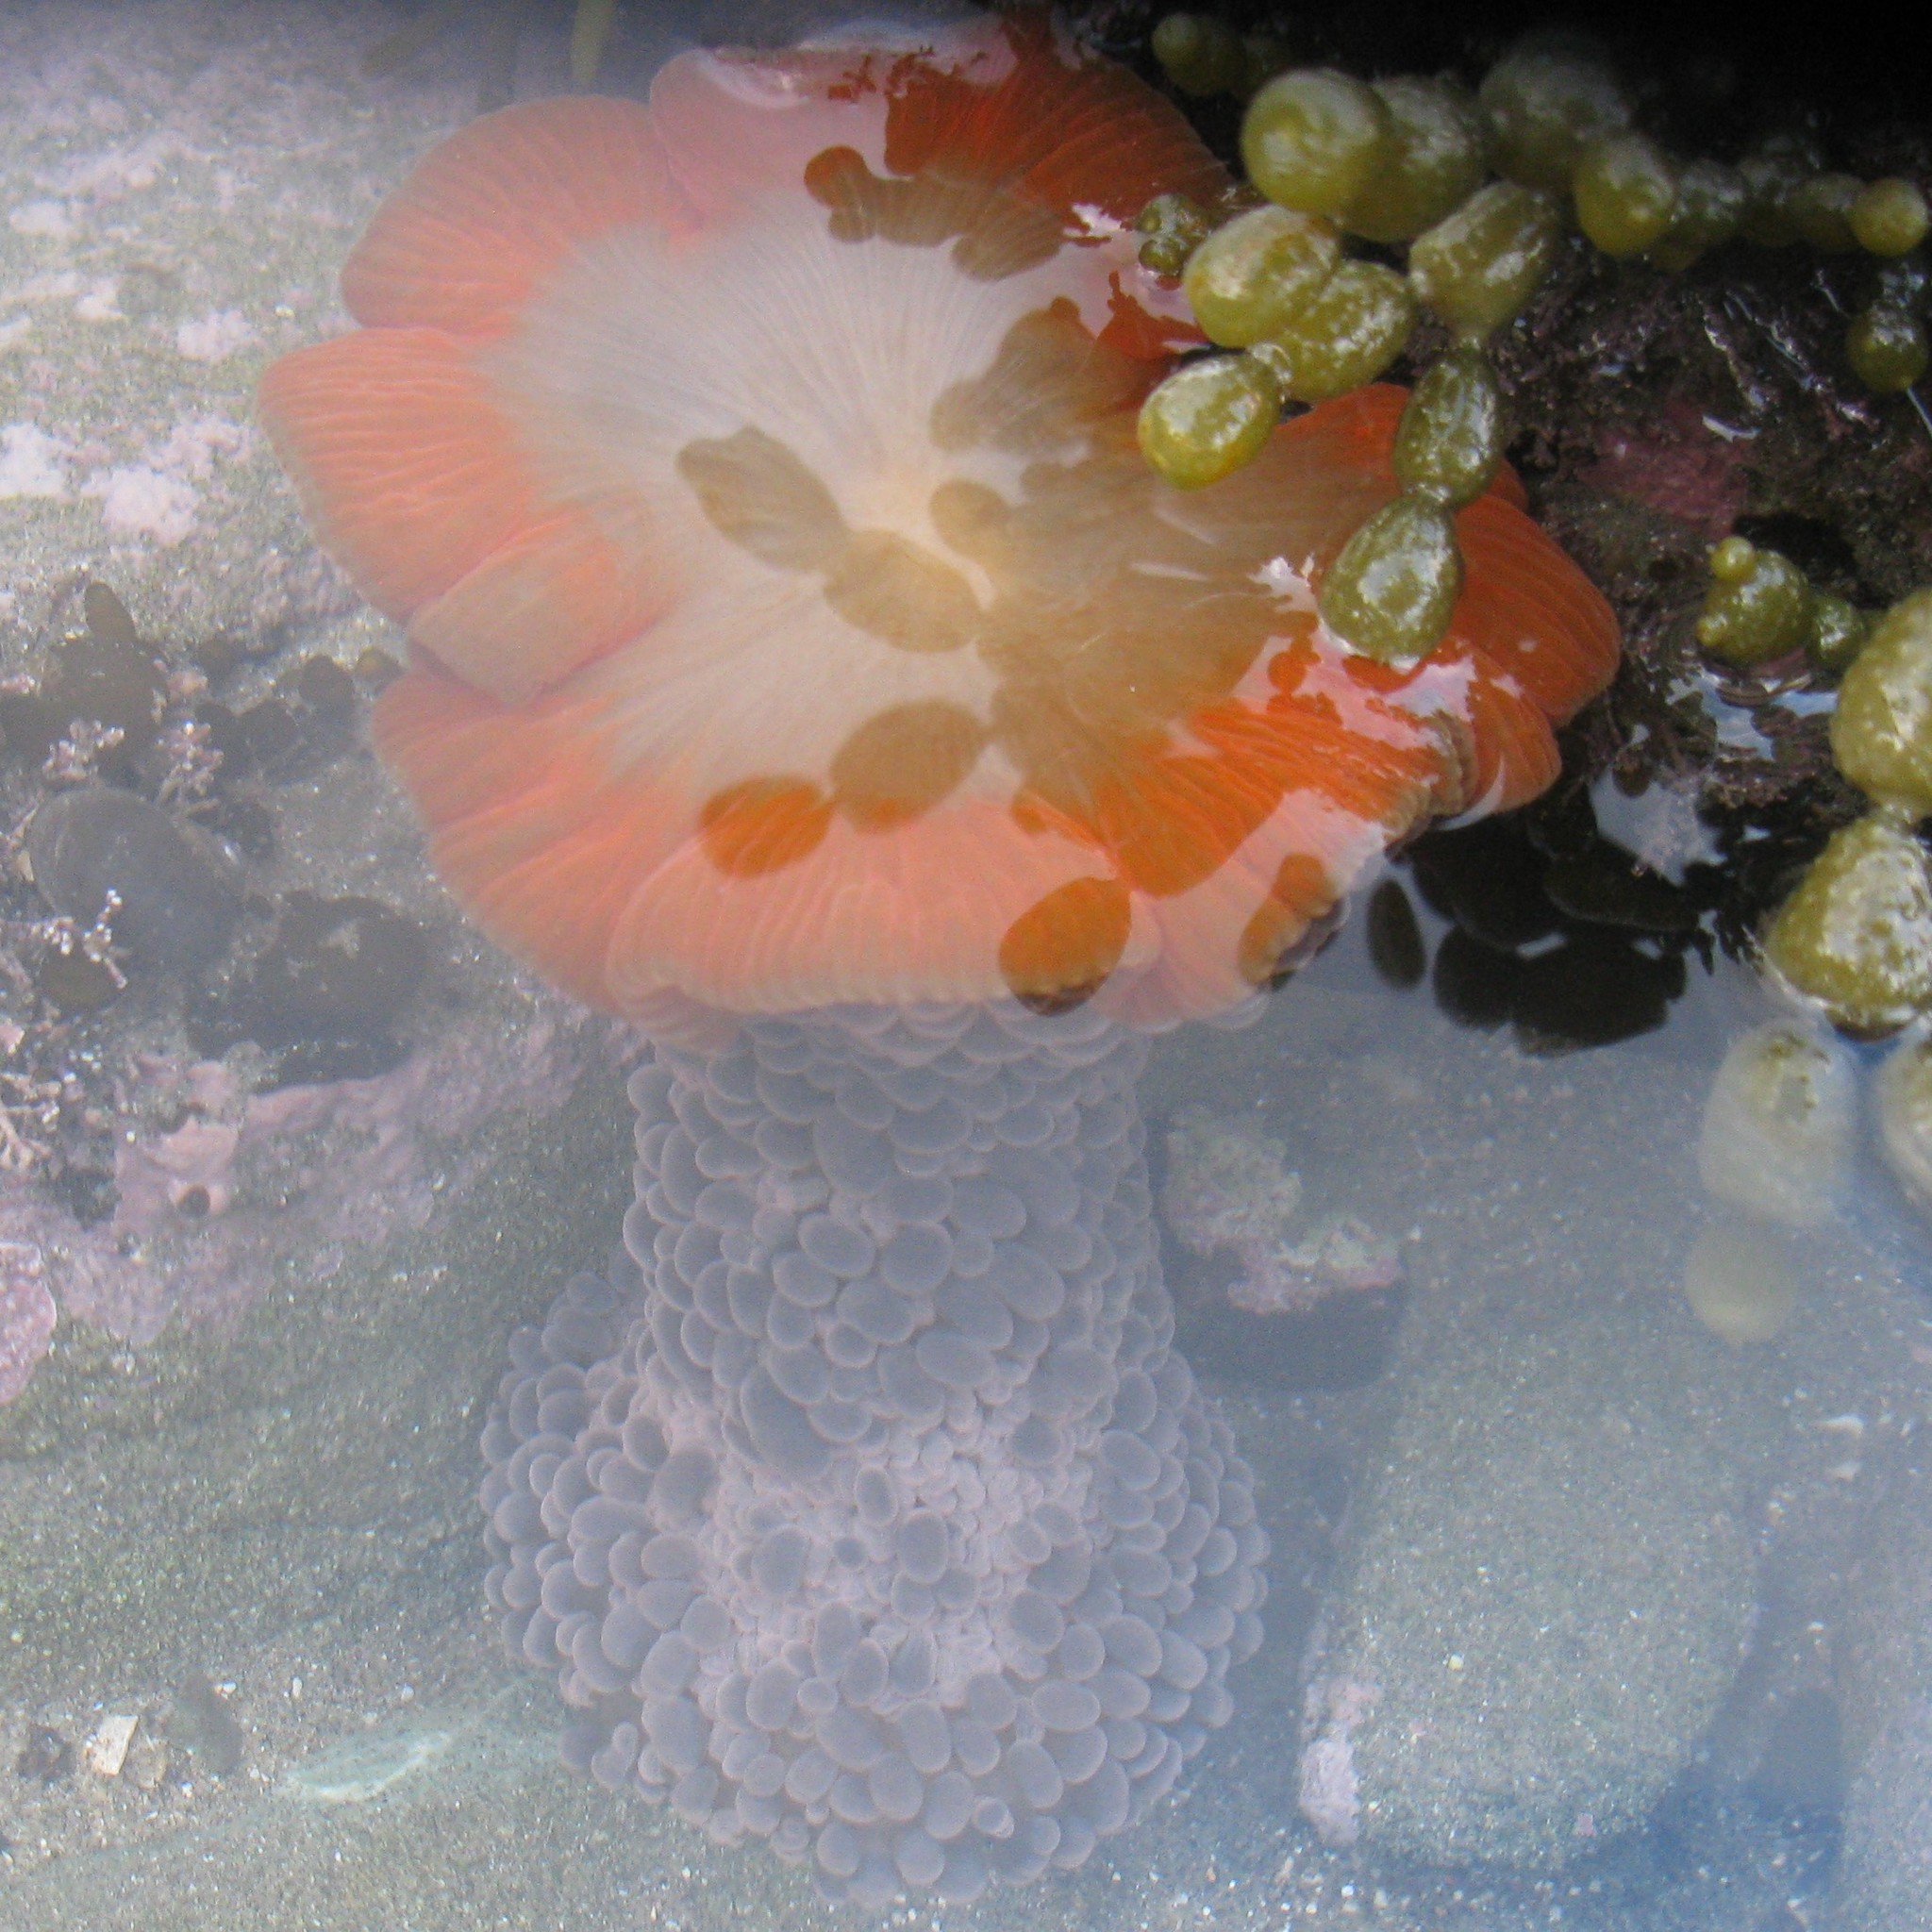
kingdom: Animalia
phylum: Cnidaria
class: Anthozoa
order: Actiniaria
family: Actiniidae
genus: Phlyctenactis
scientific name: Phlyctenactis tuberculosa
